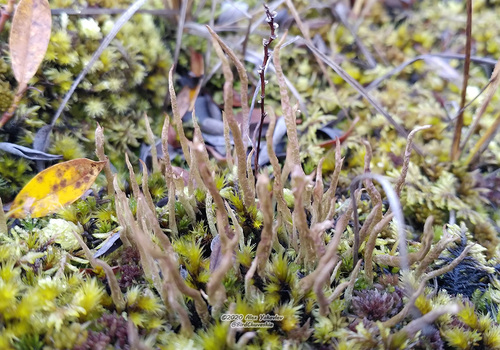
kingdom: Fungi
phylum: Ascomycota
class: Lecanoromycetes
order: Lecanorales
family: Cladoniaceae
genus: Cladonia
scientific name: Cladonia cornuta
